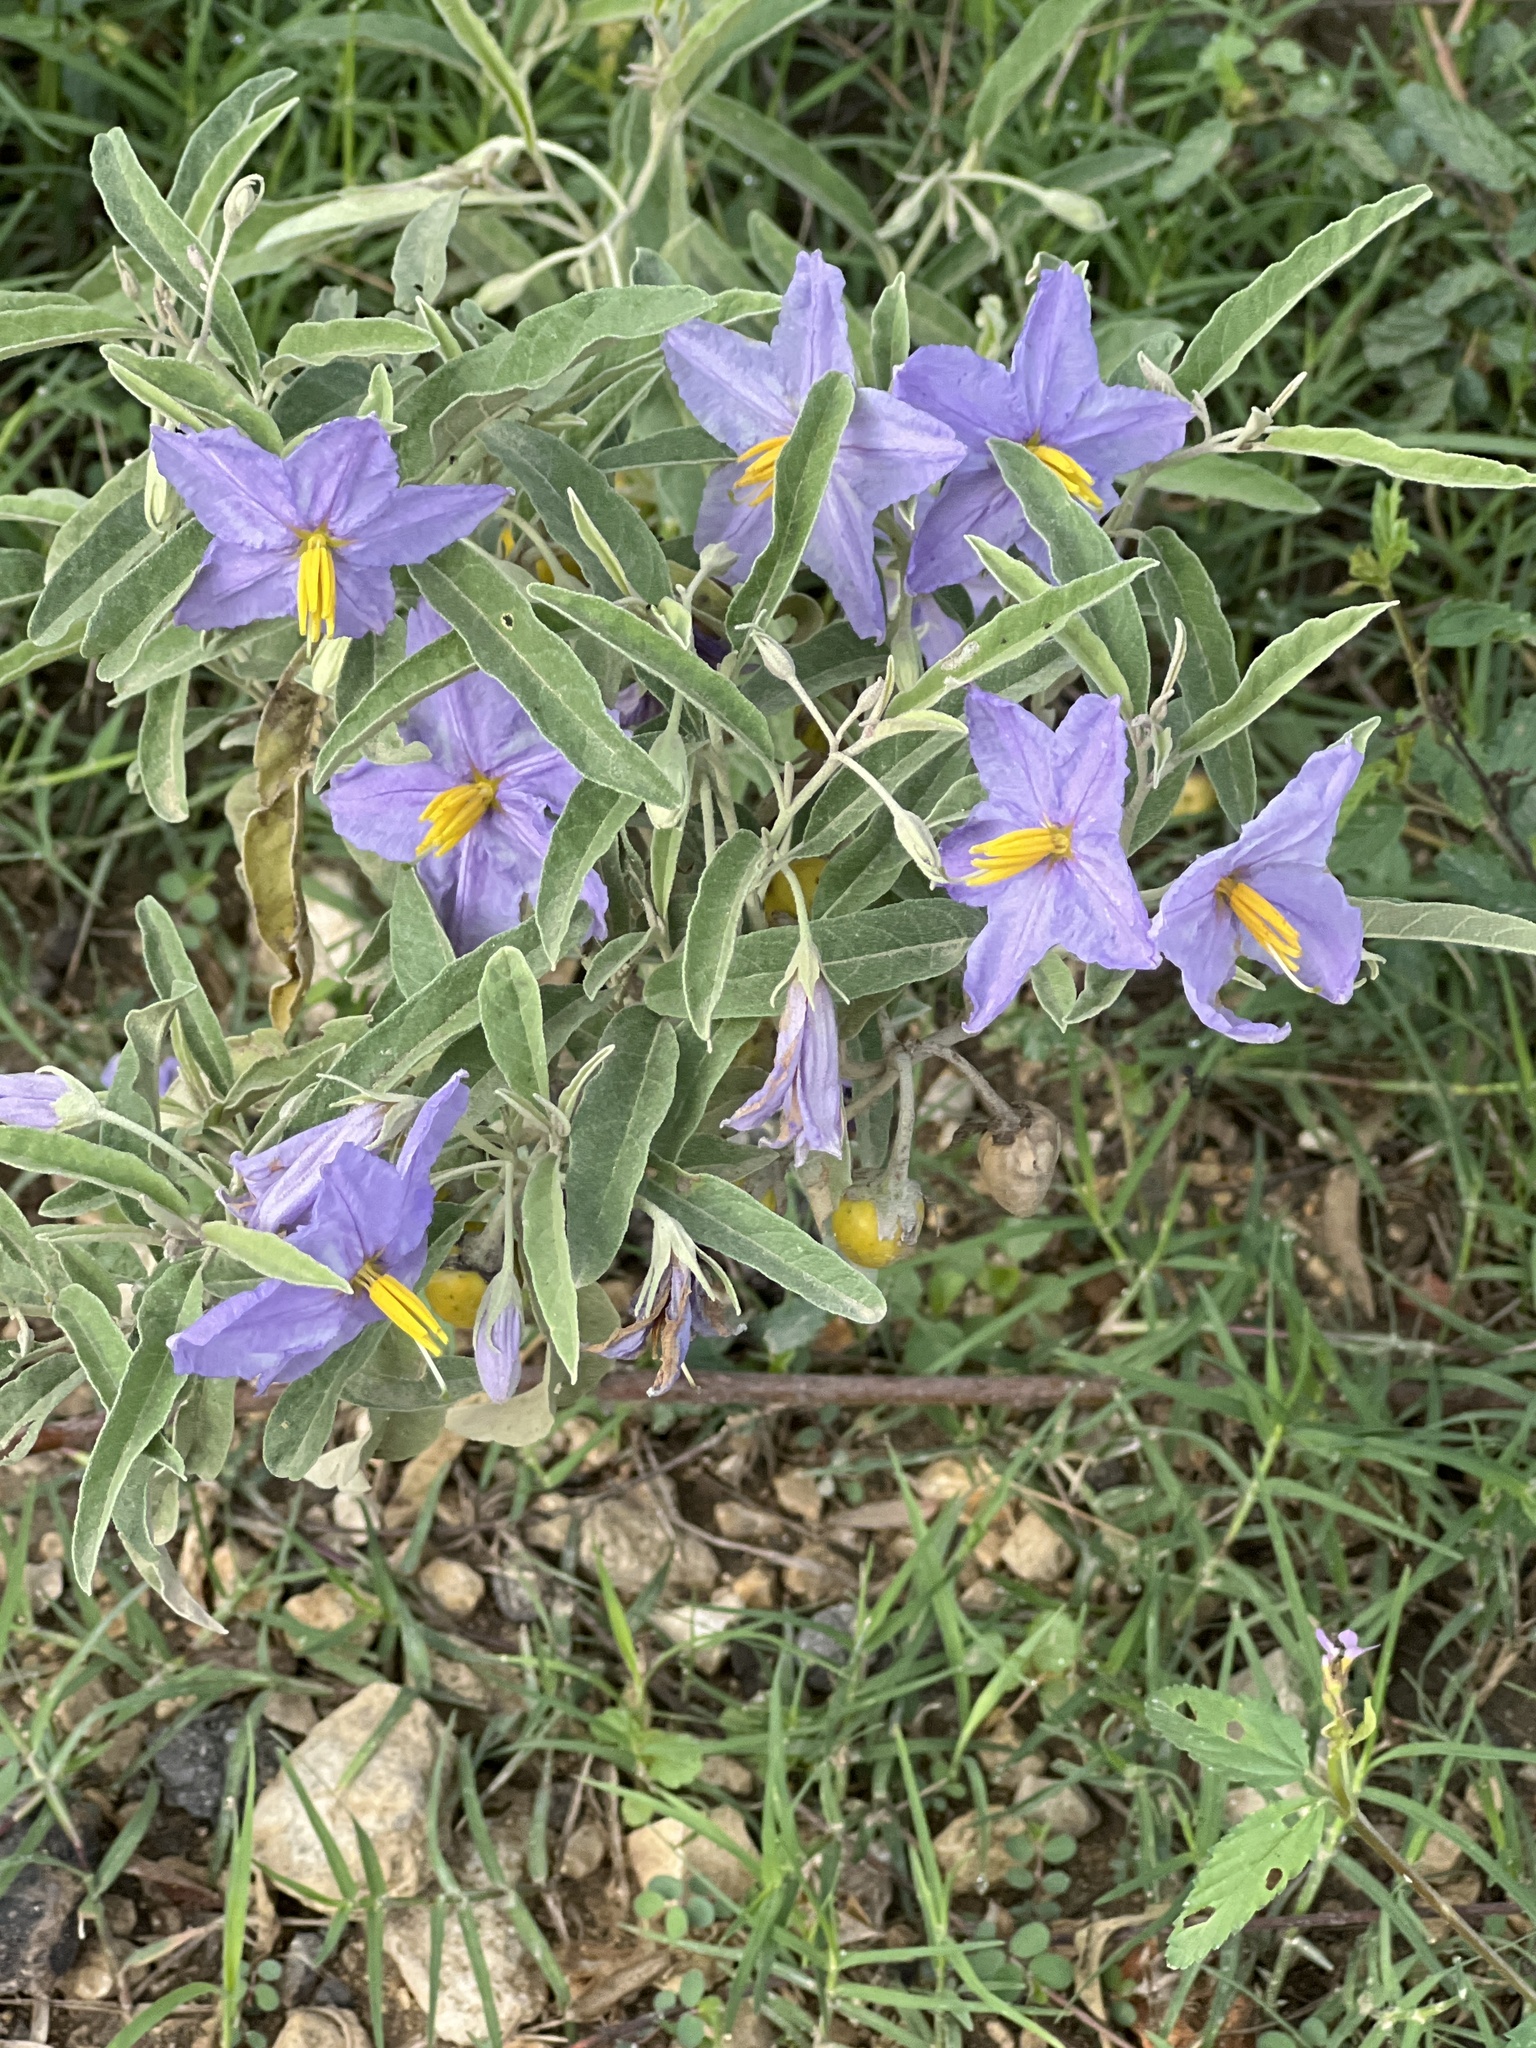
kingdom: Plantae
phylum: Tracheophyta
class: Magnoliopsida
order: Solanales
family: Solanaceae
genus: Solanum
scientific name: Solanum elaeagnifolium
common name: Silverleaf nightshade
